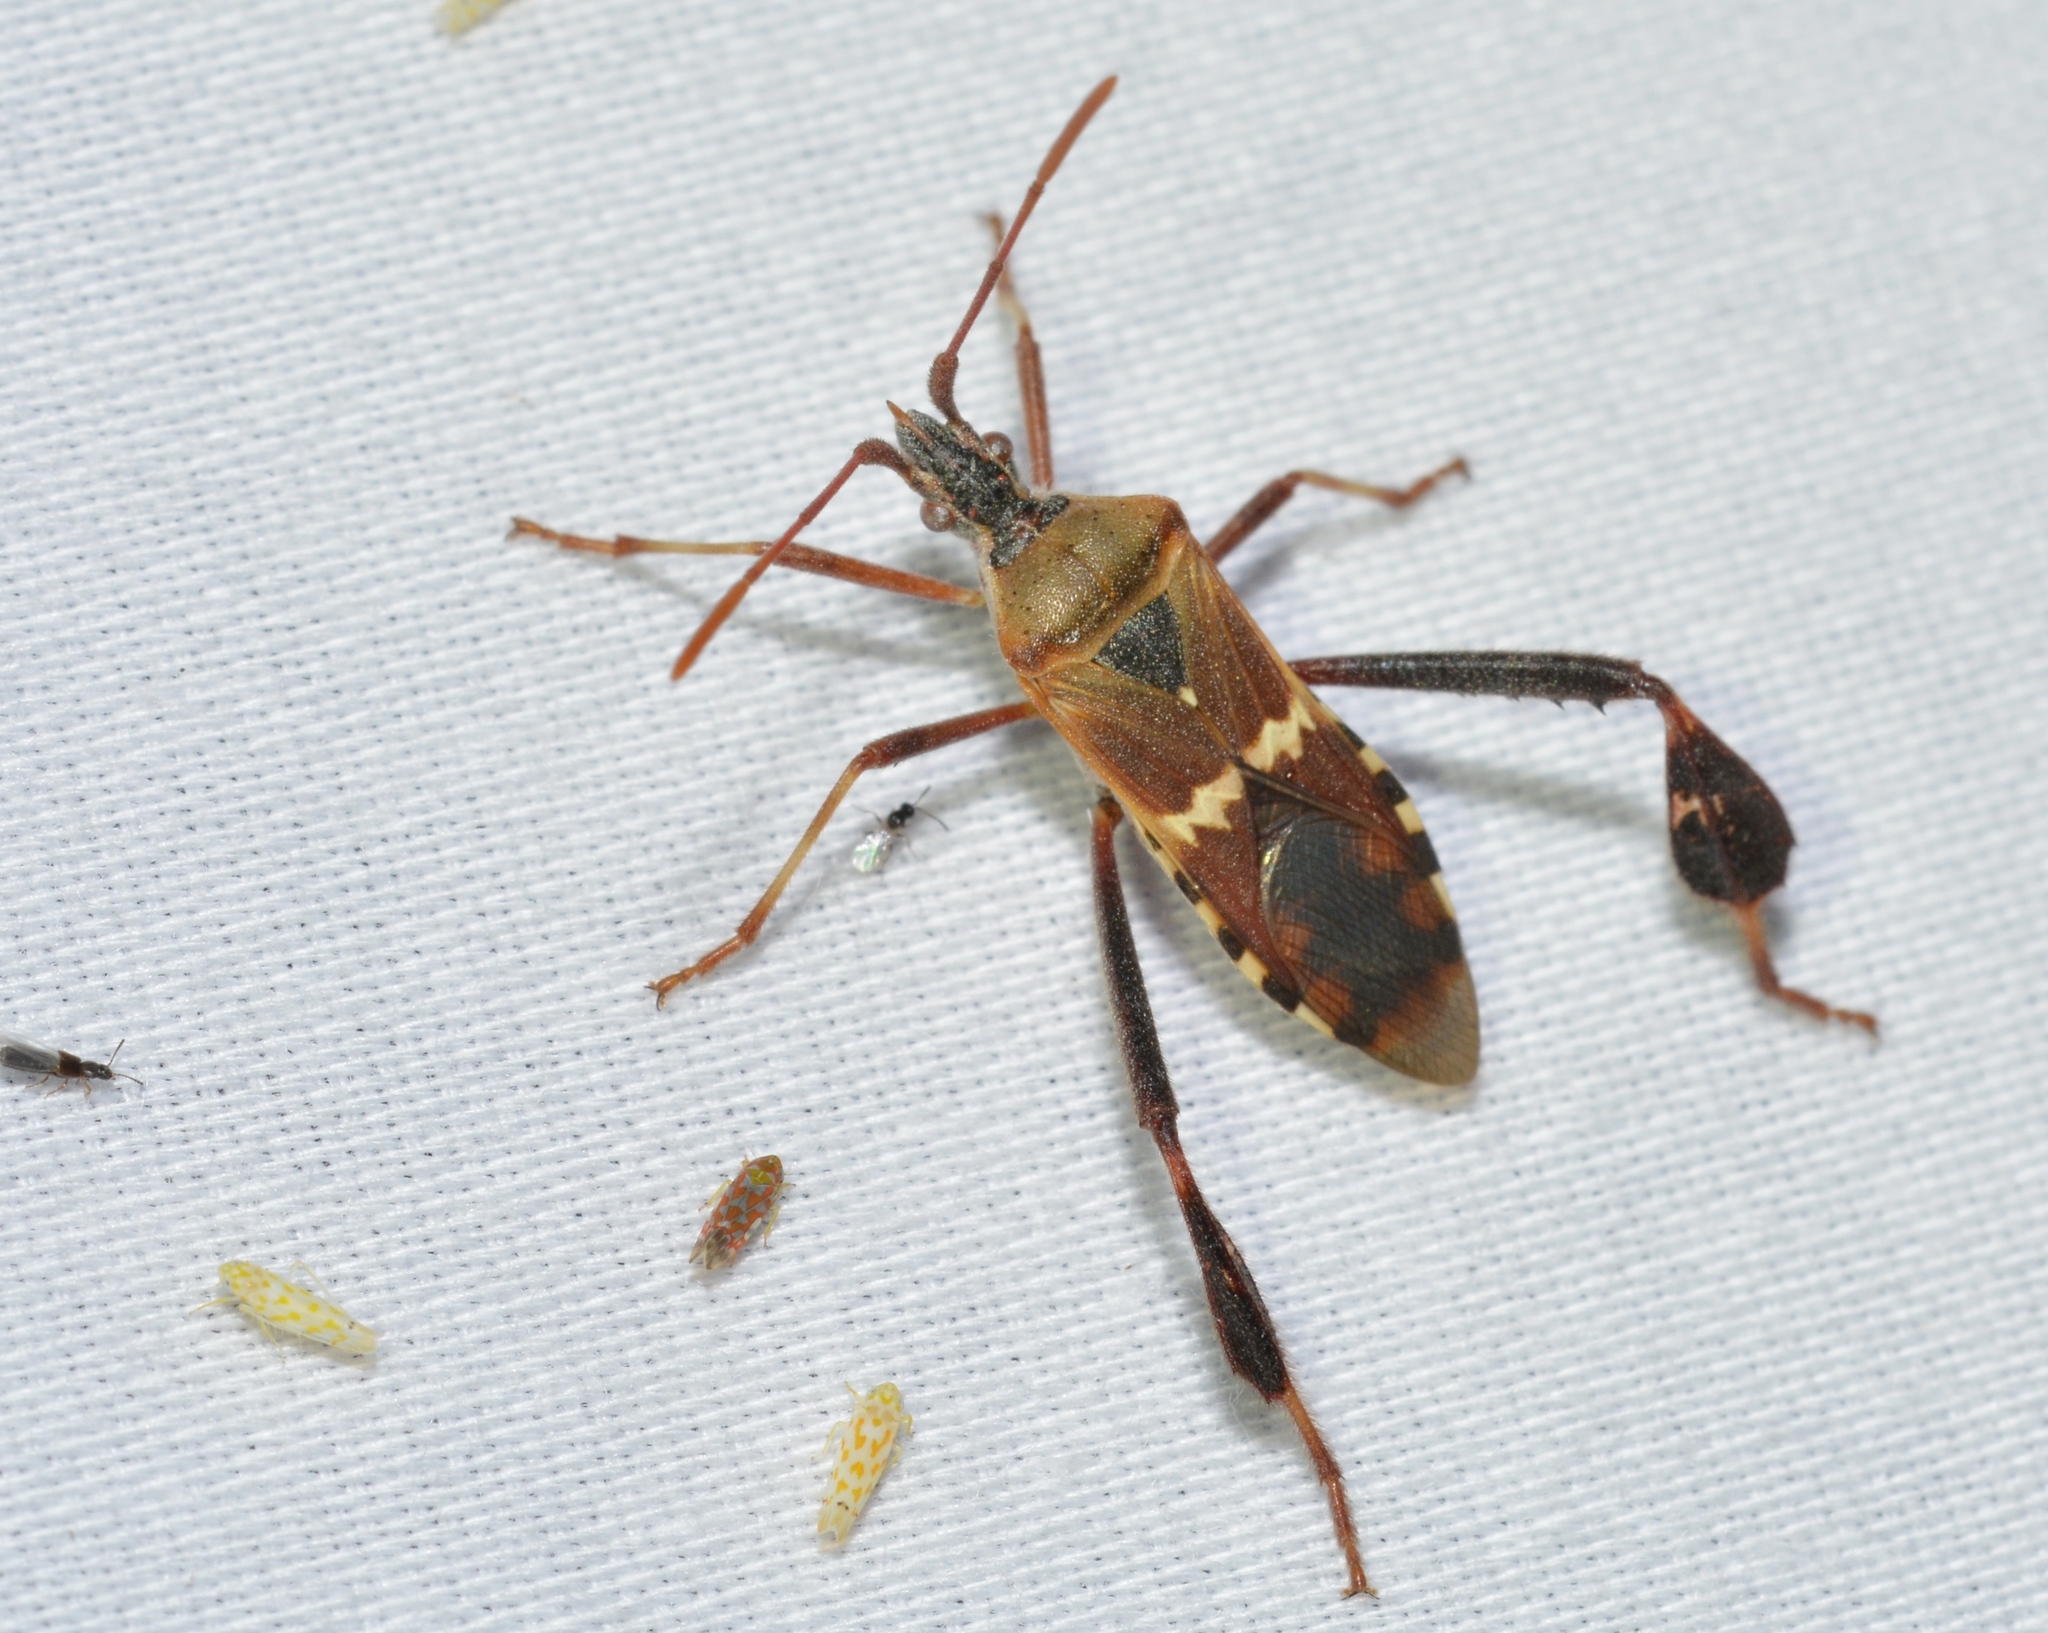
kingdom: Animalia
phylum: Arthropoda
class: Insecta
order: Hemiptera
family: Coreidae
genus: Leptoglossus
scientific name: Leptoglossus clypealis
